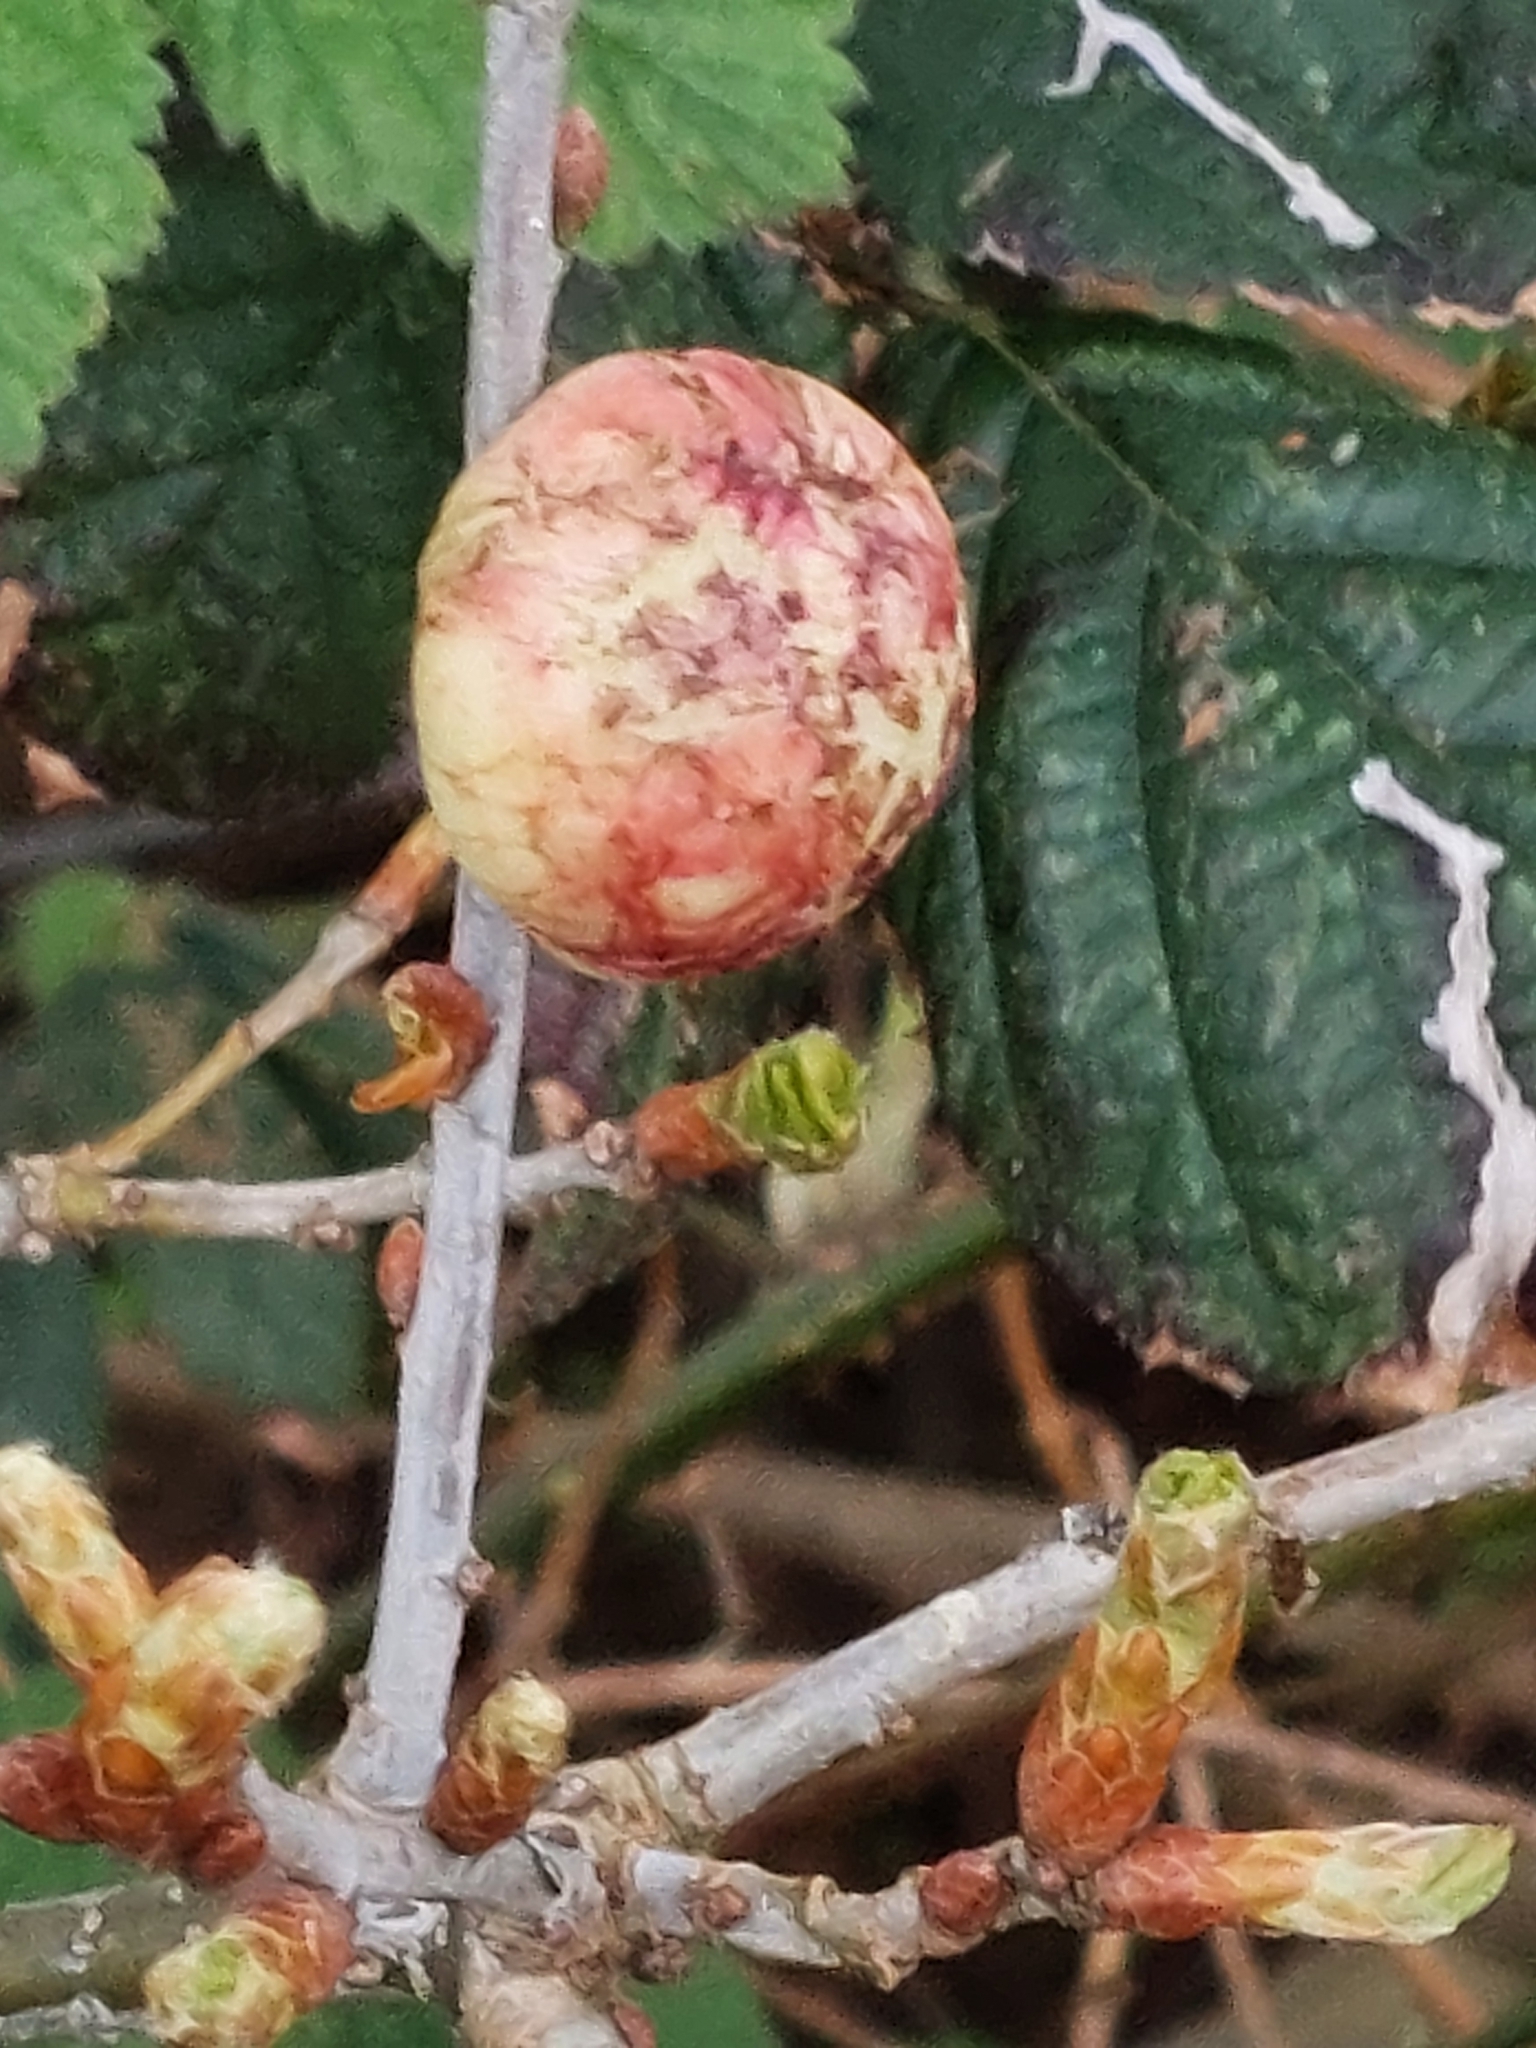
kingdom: Animalia
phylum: Arthropoda
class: Insecta
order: Hymenoptera
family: Cynipidae
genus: Biorhiza
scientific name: Biorhiza pallida
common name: Oak apple
